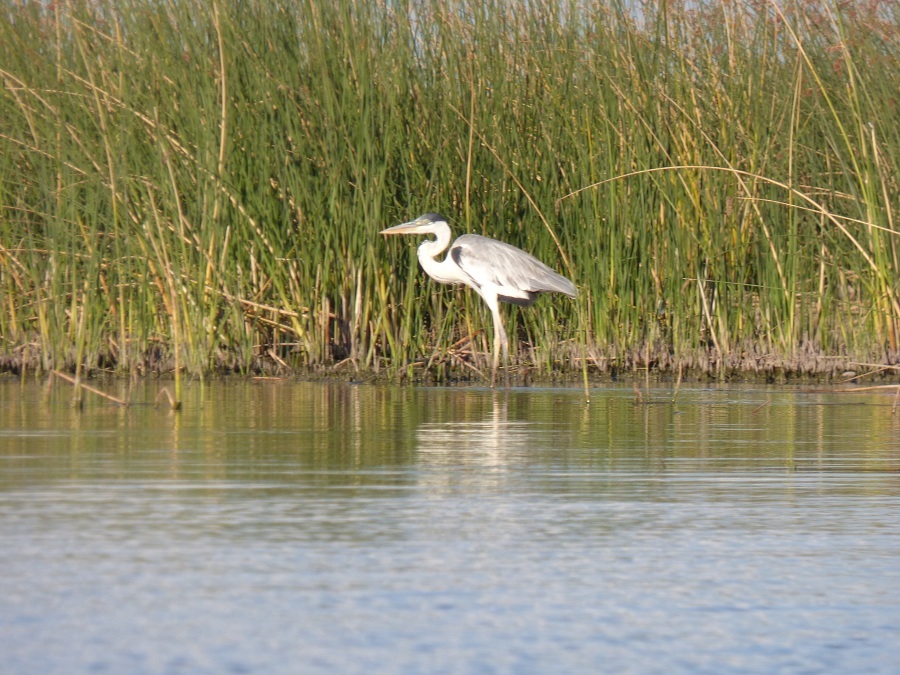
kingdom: Animalia
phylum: Chordata
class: Aves
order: Pelecaniformes
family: Ardeidae
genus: Ardea
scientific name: Ardea cocoi
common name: Cocoi heron
